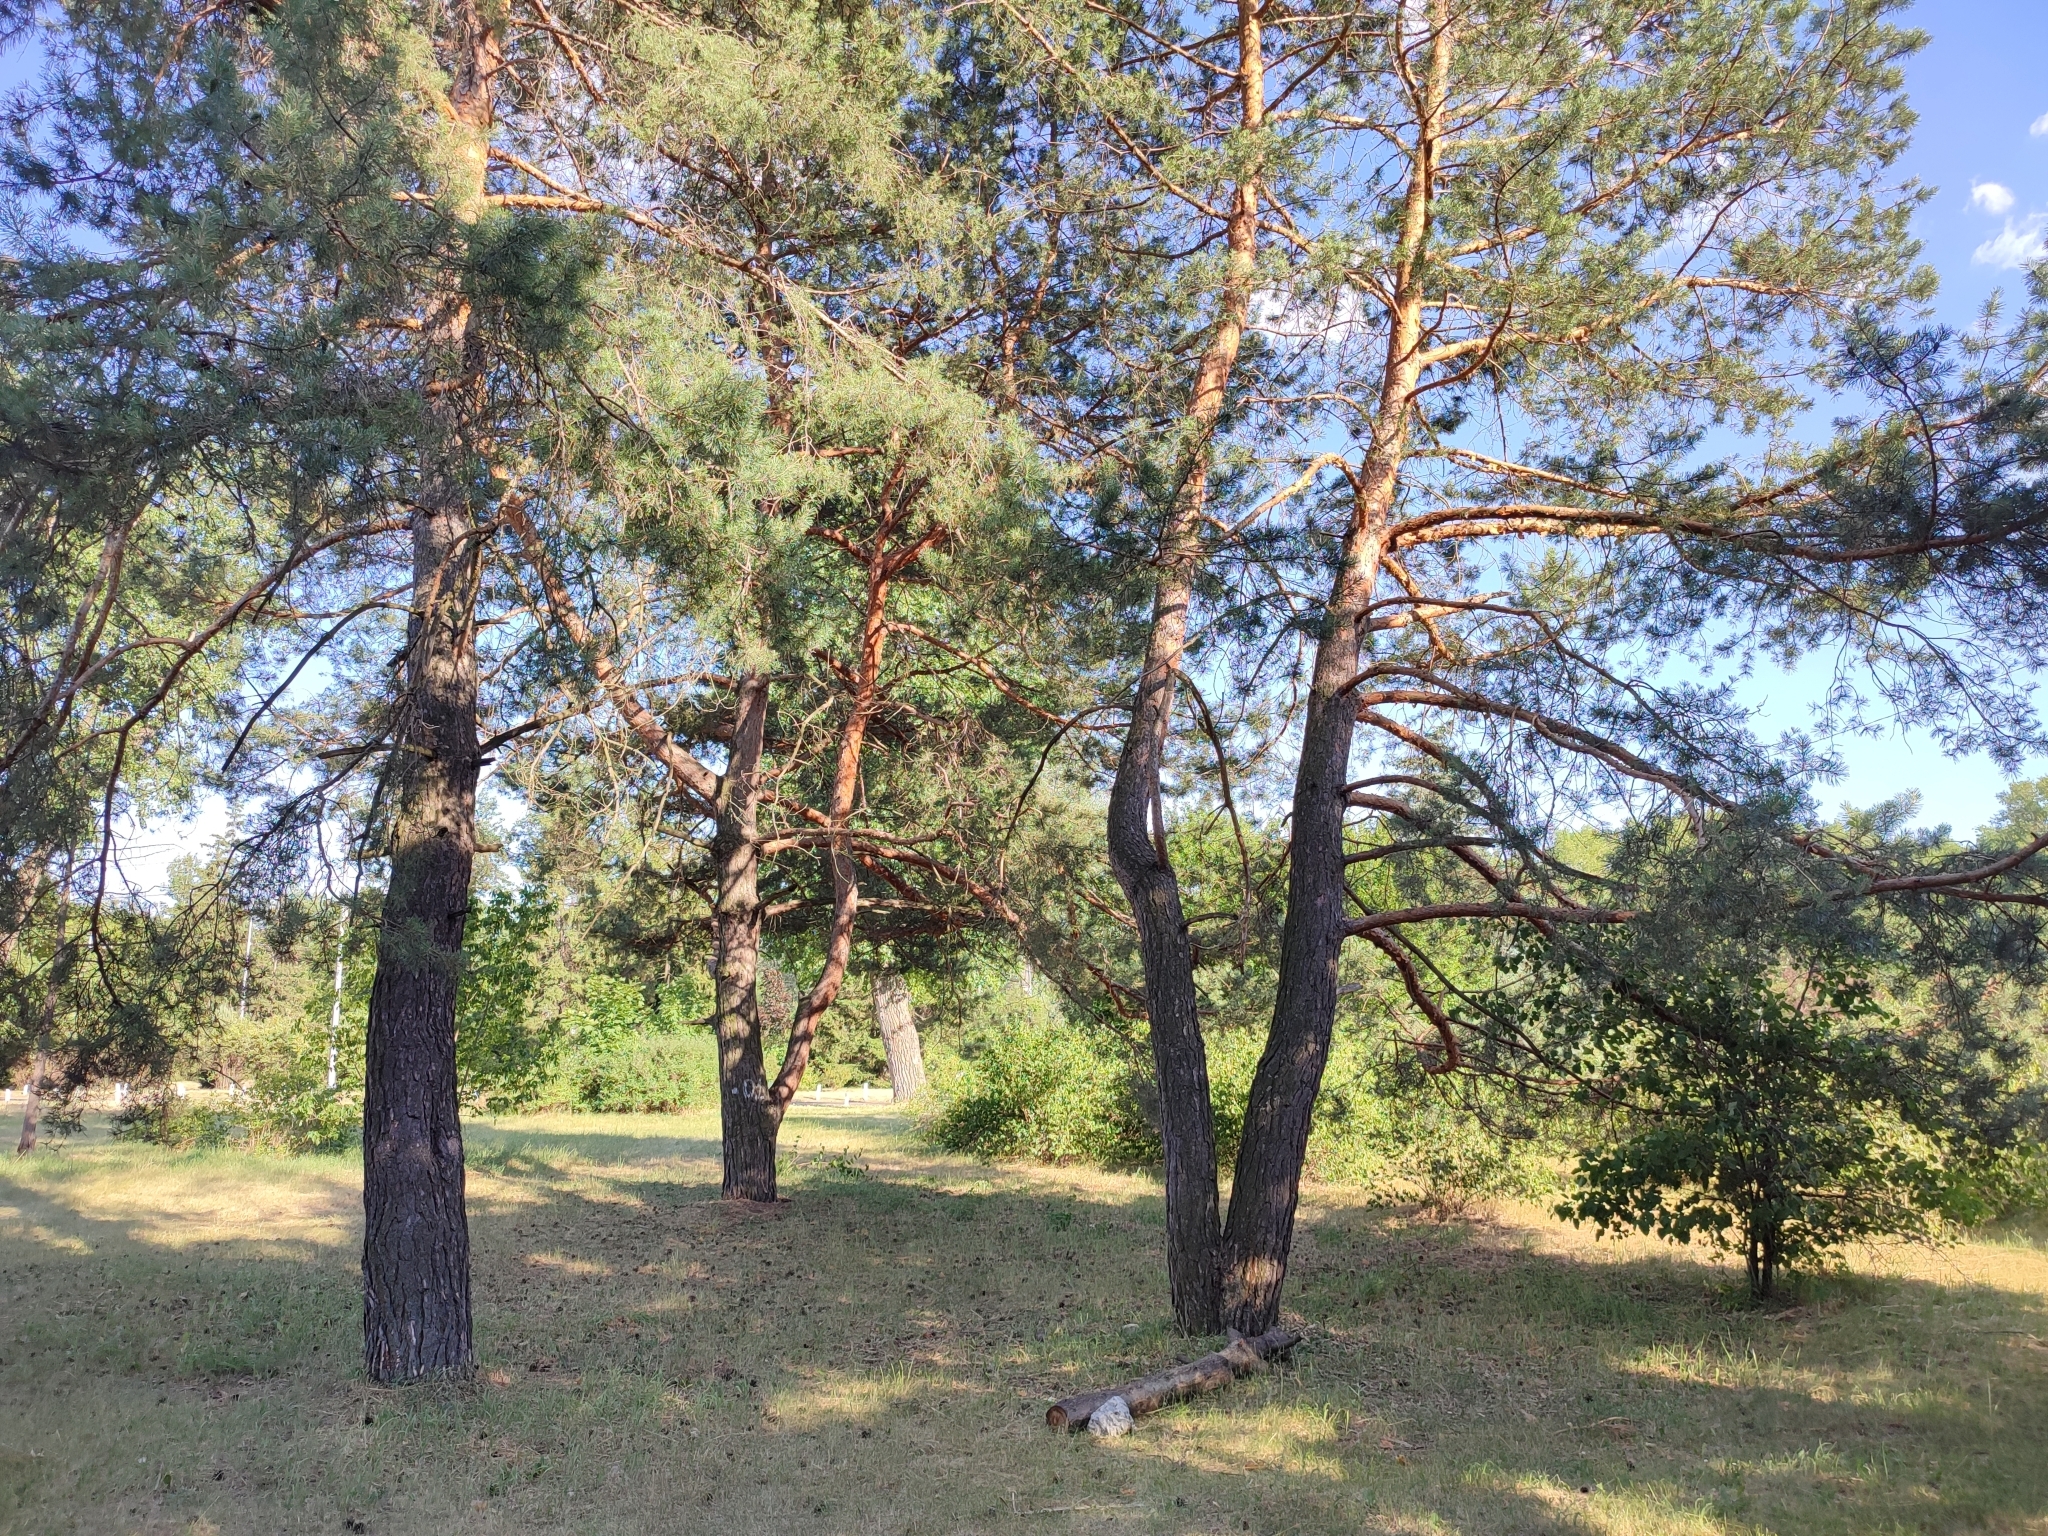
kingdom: Plantae
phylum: Tracheophyta
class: Pinopsida
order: Pinales
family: Pinaceae
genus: Pinus
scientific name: Pinus sylvestris
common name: Scots pine
